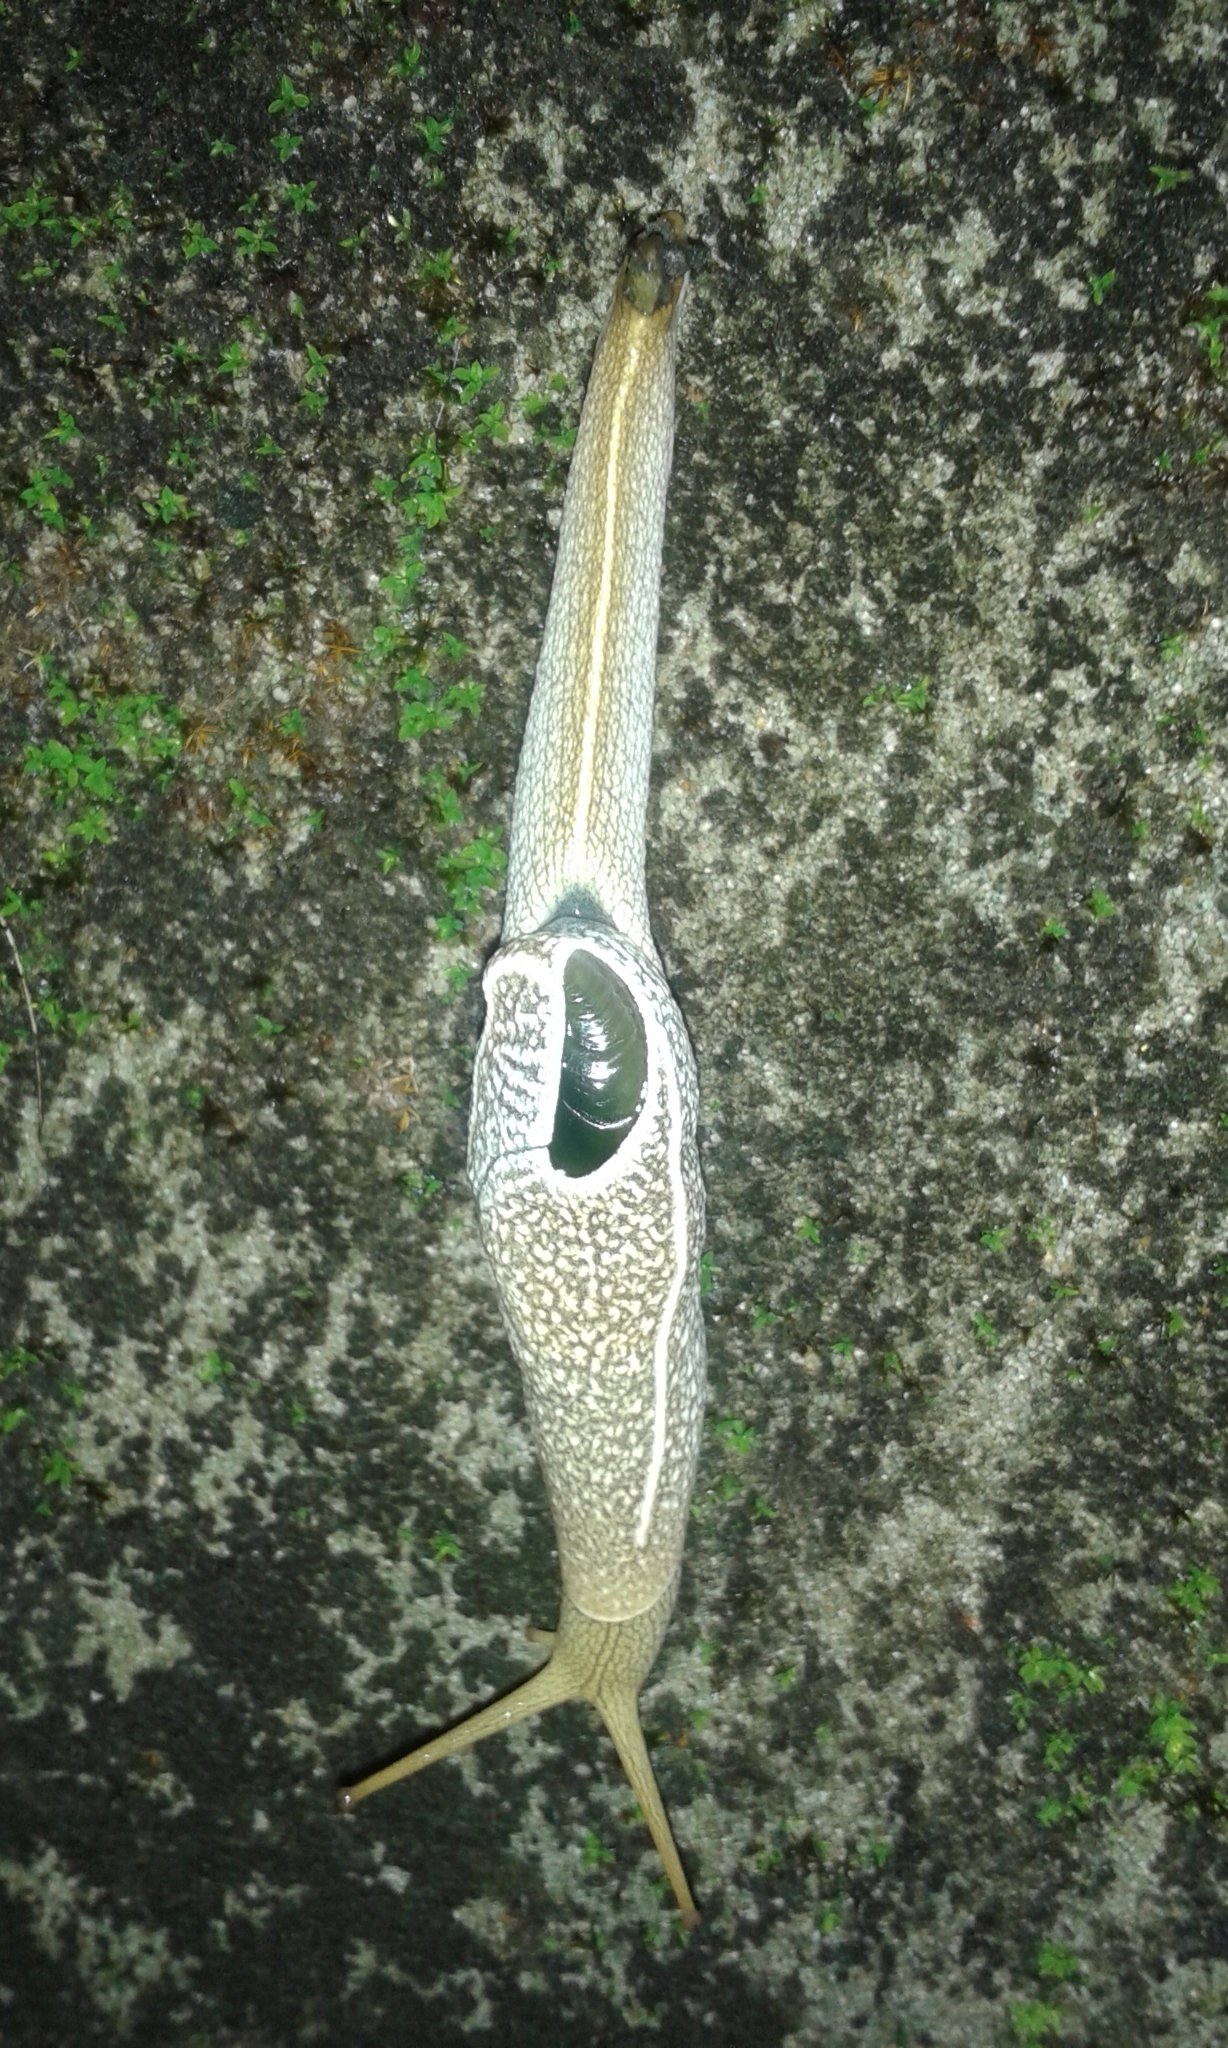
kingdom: Animalia
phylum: Mollusca
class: Gastropoda
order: Stylommatophora
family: Helicarionidae
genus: Girasia
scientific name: Girasia crocea
